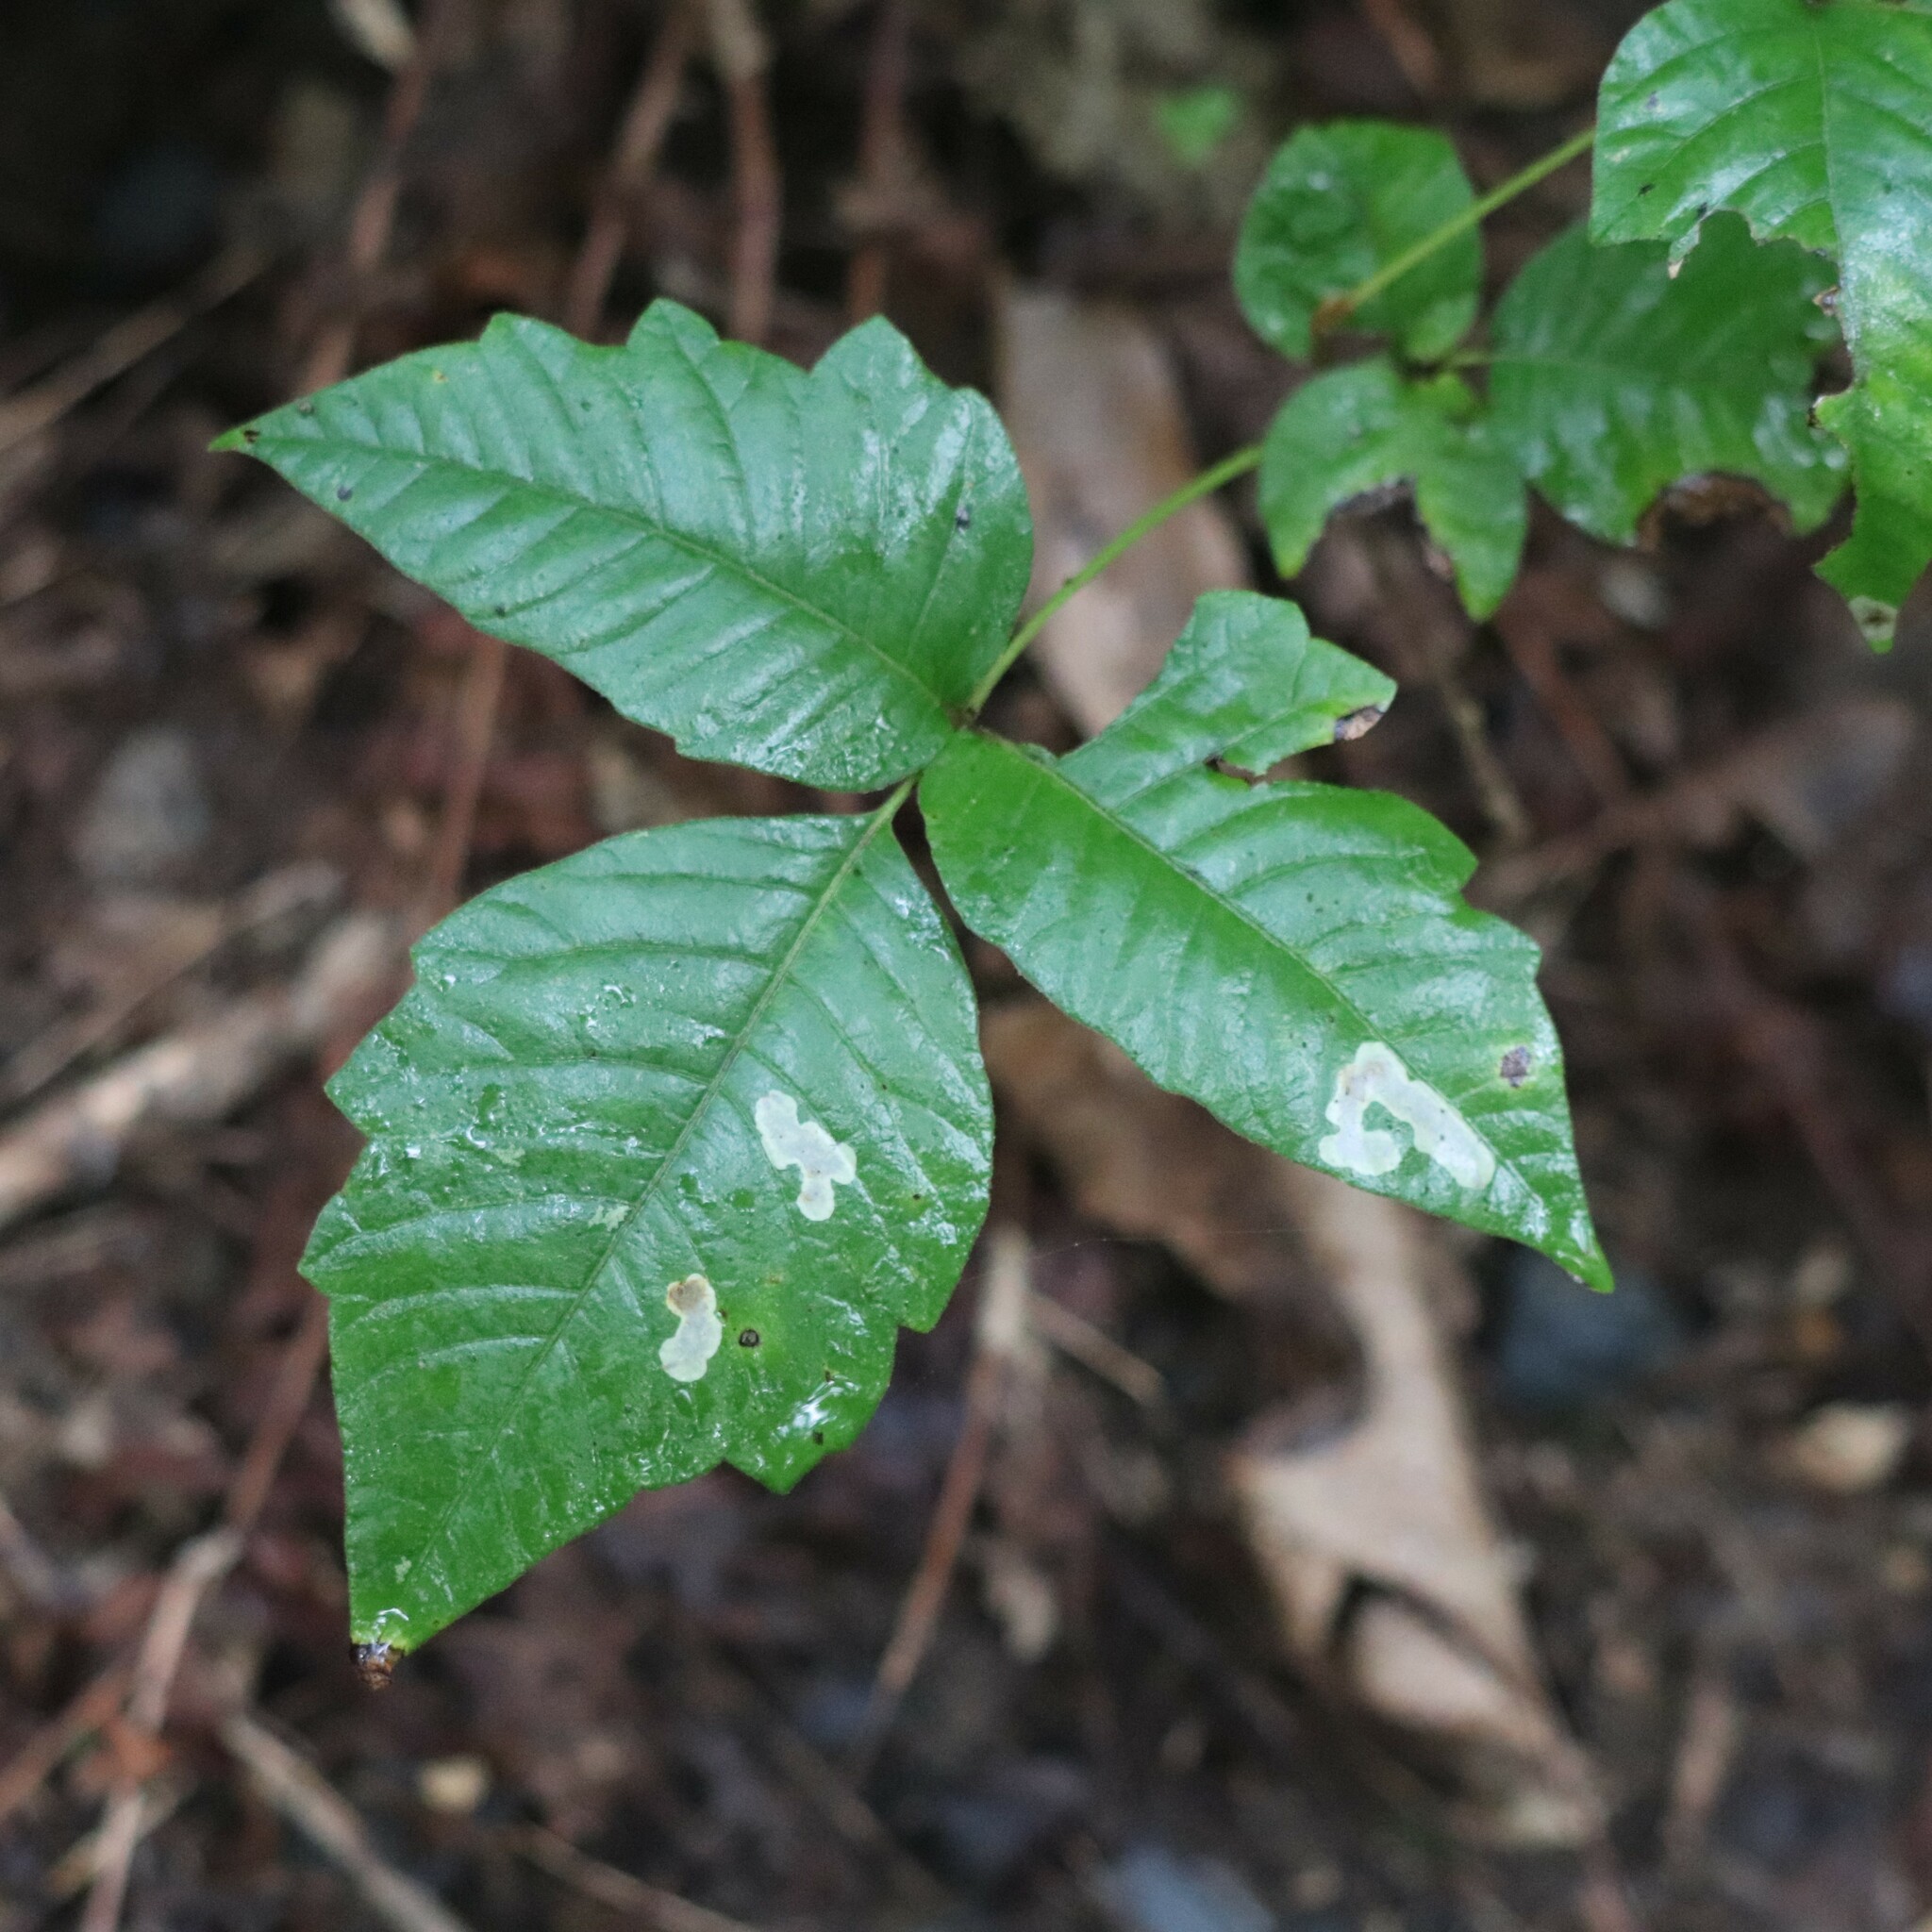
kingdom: Animalia
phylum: Arthropoda
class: Insecta
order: Lepidoptera
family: Gracillariidae
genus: Cameraria
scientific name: Cameraria guttifinitella
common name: Poison ivy leaf-miner moth
